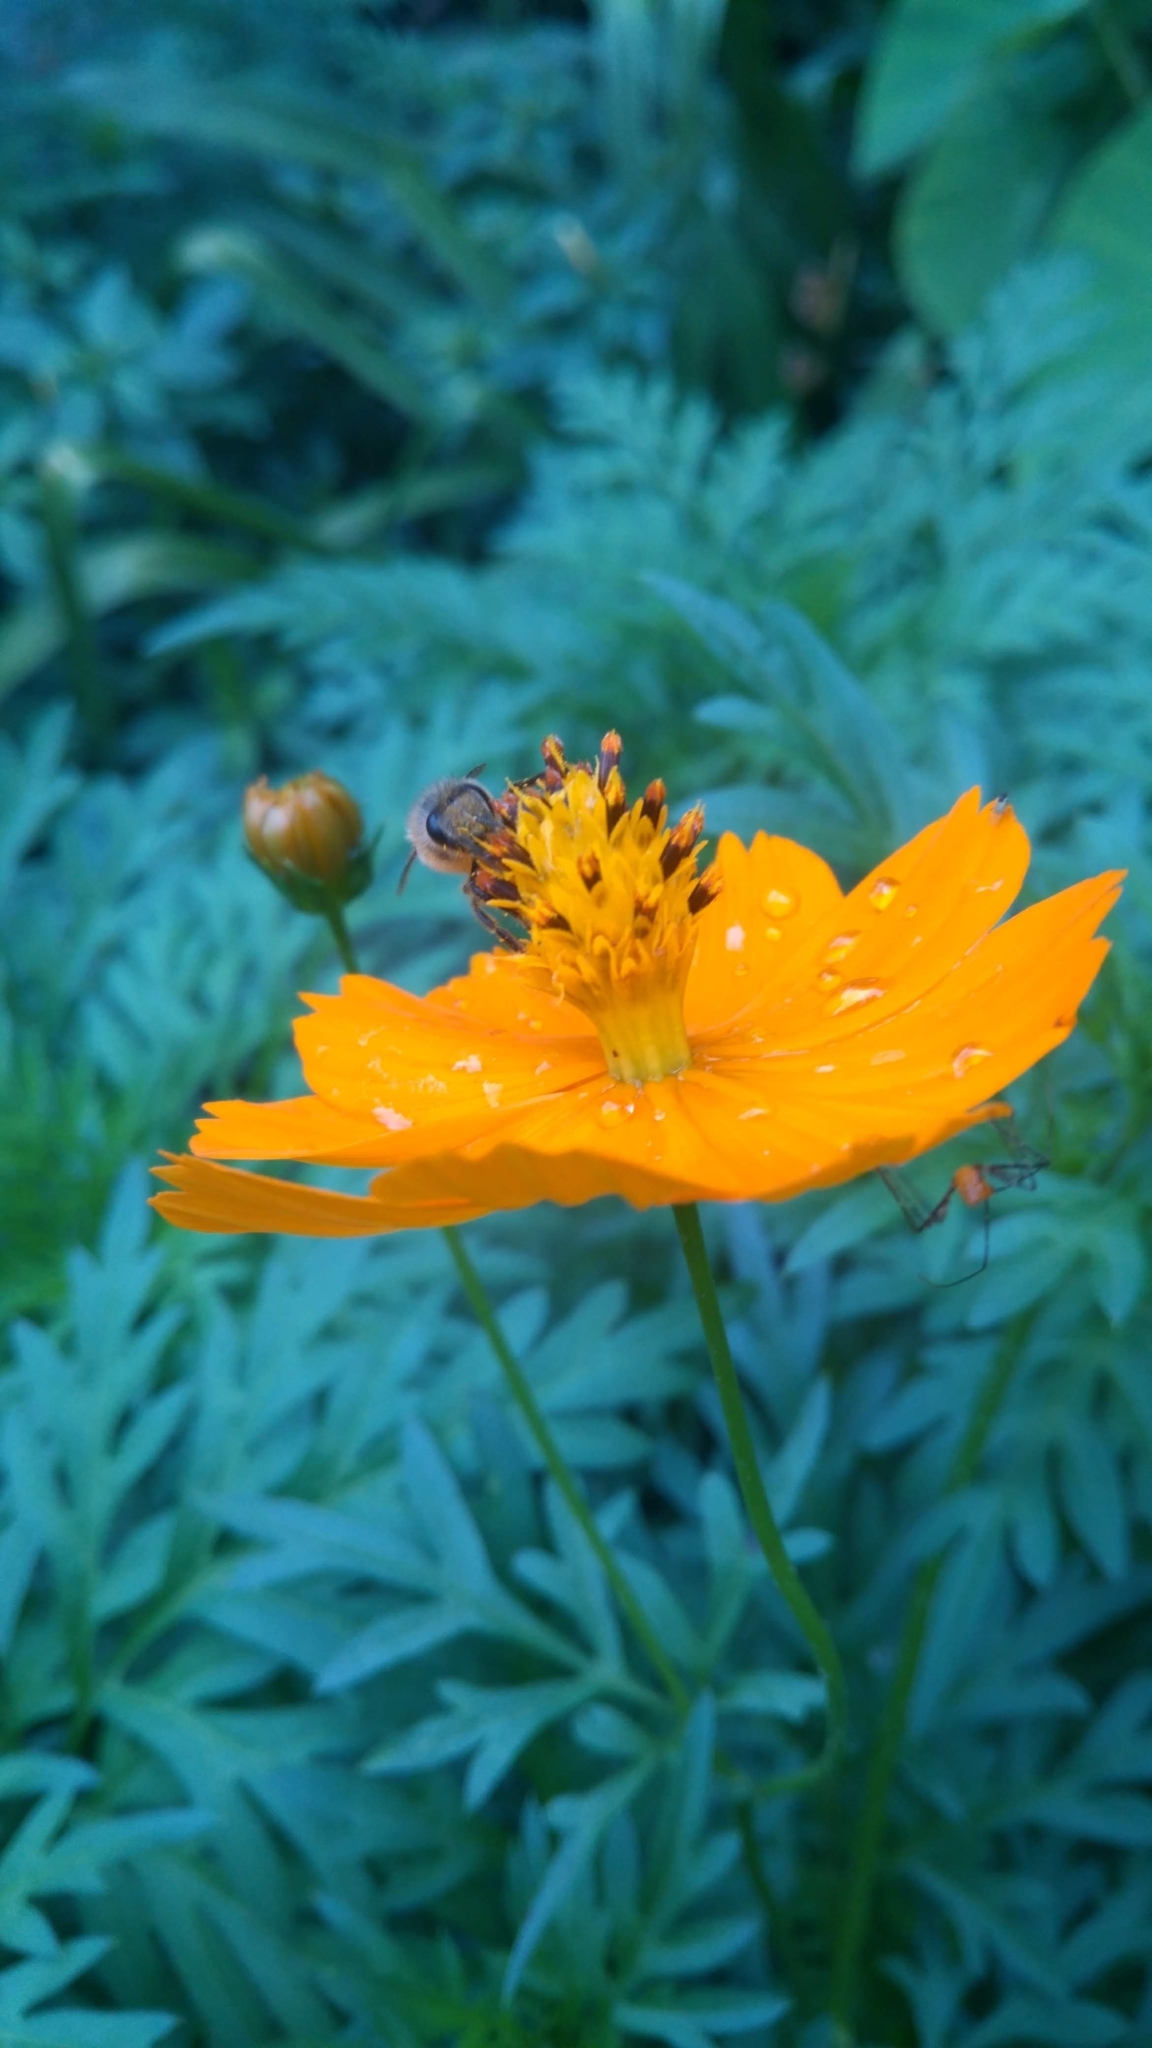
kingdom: Animalia
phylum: Arthropoda
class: Insecta
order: Hymenoptera
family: Apidae
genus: Apis
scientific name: Apis mellifera
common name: Honey bee
